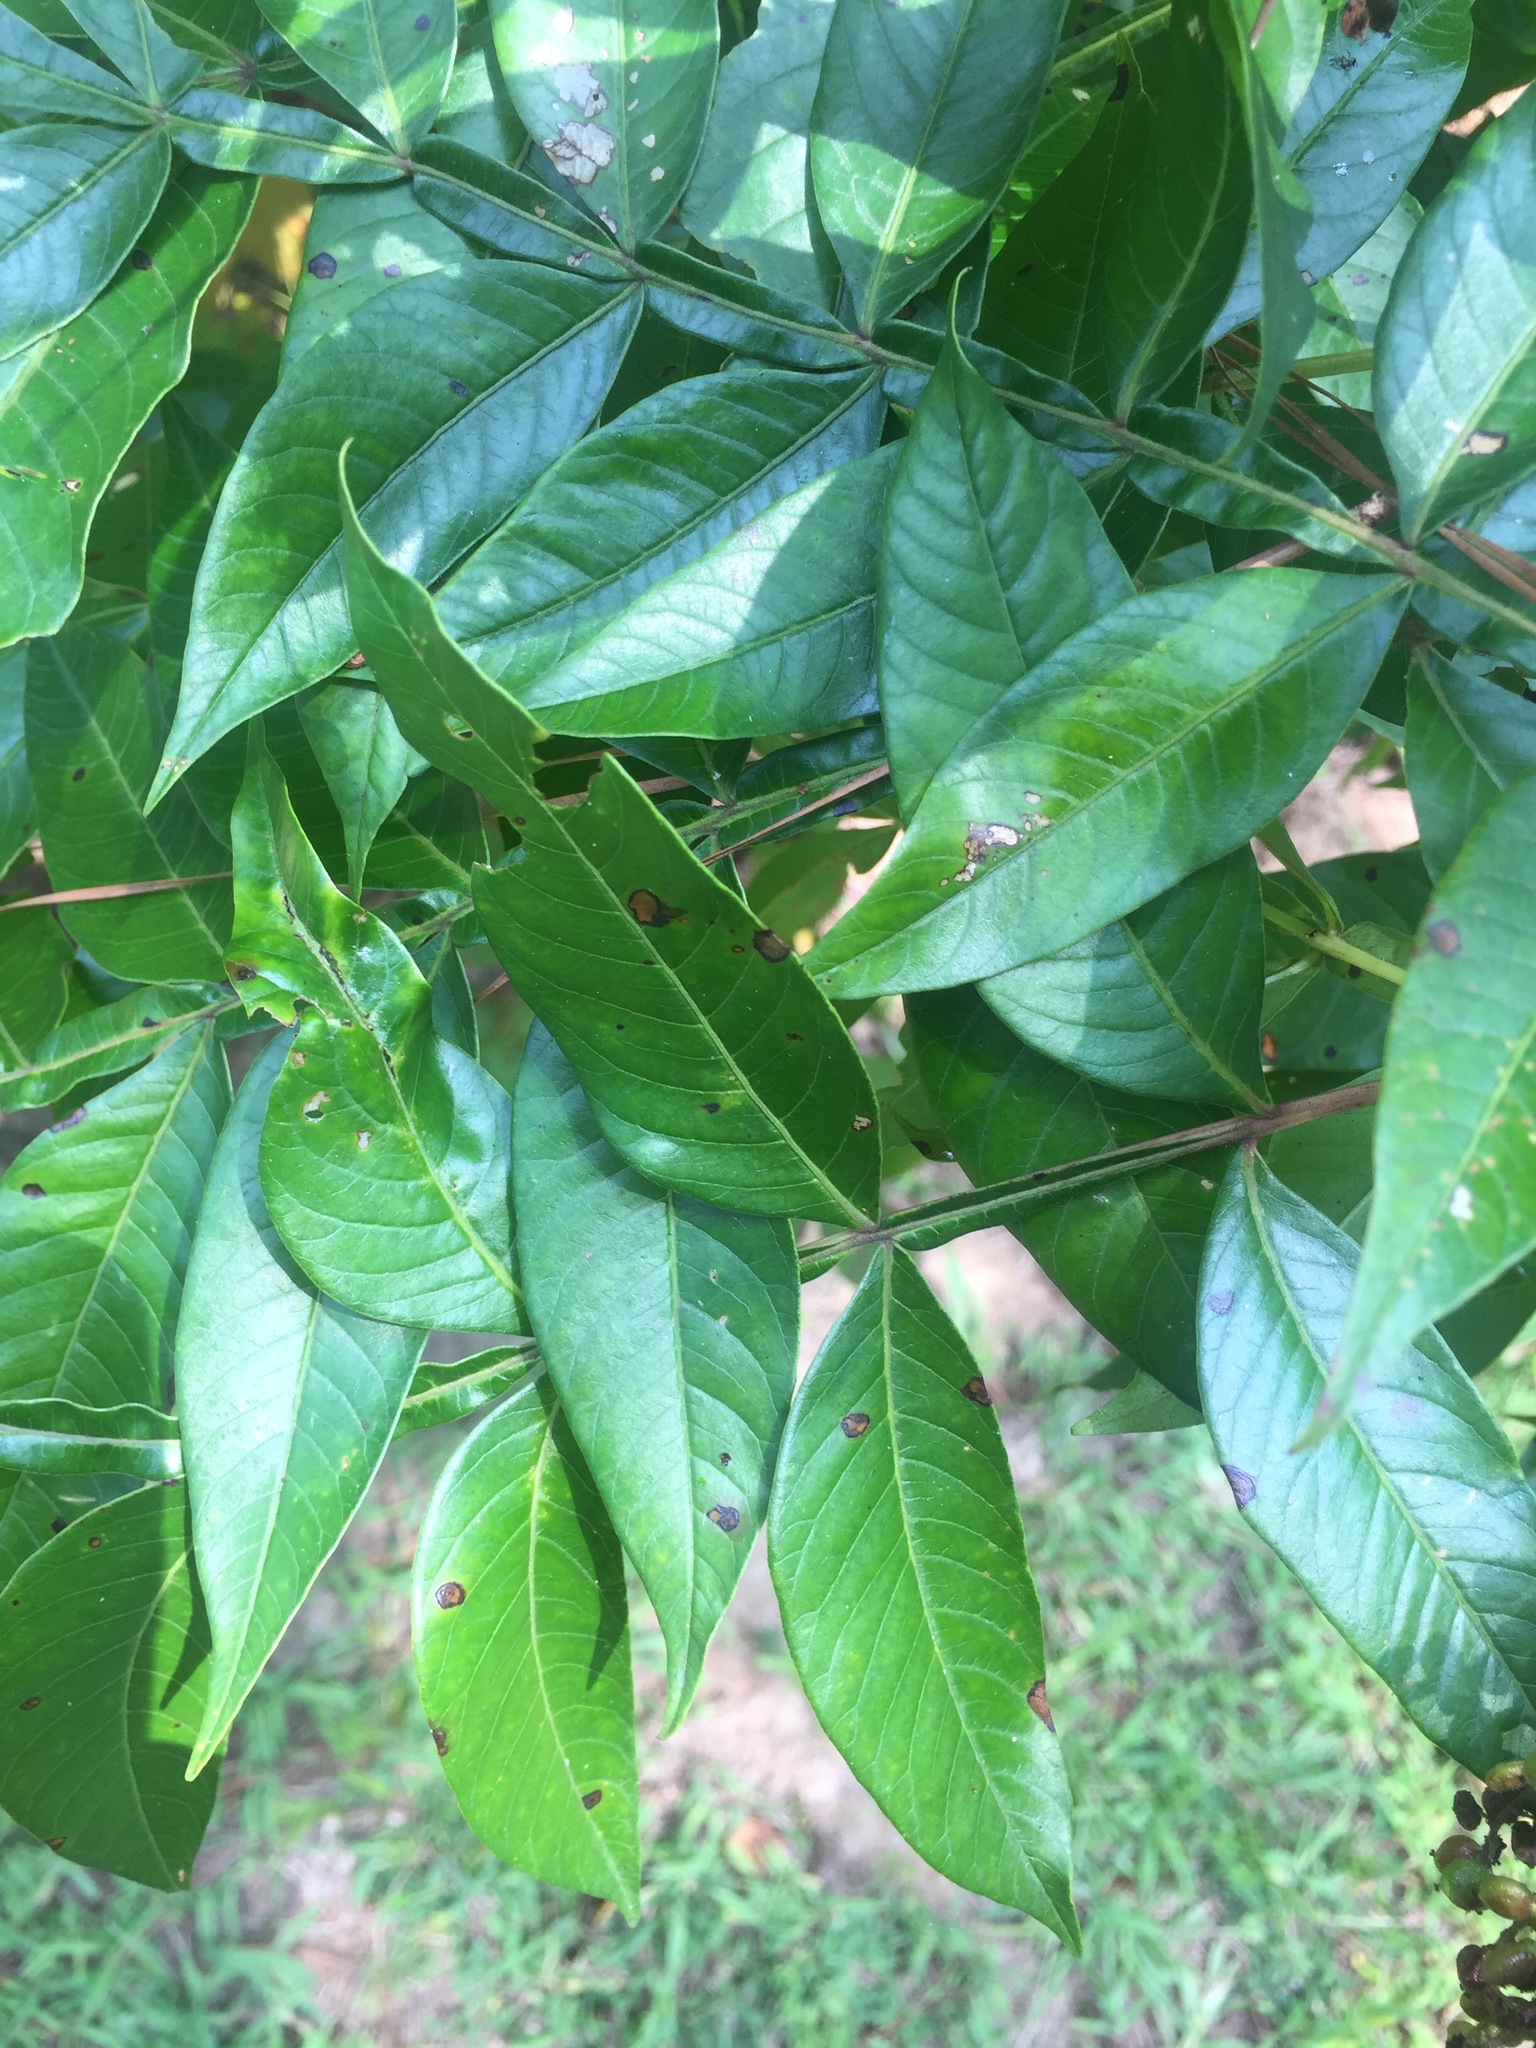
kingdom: Plantae
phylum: Tracheophyta
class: Magnoliopsida
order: Sapindales
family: Anacardiaceae
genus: Rhus
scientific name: Rhus copallina
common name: Shining sumac
